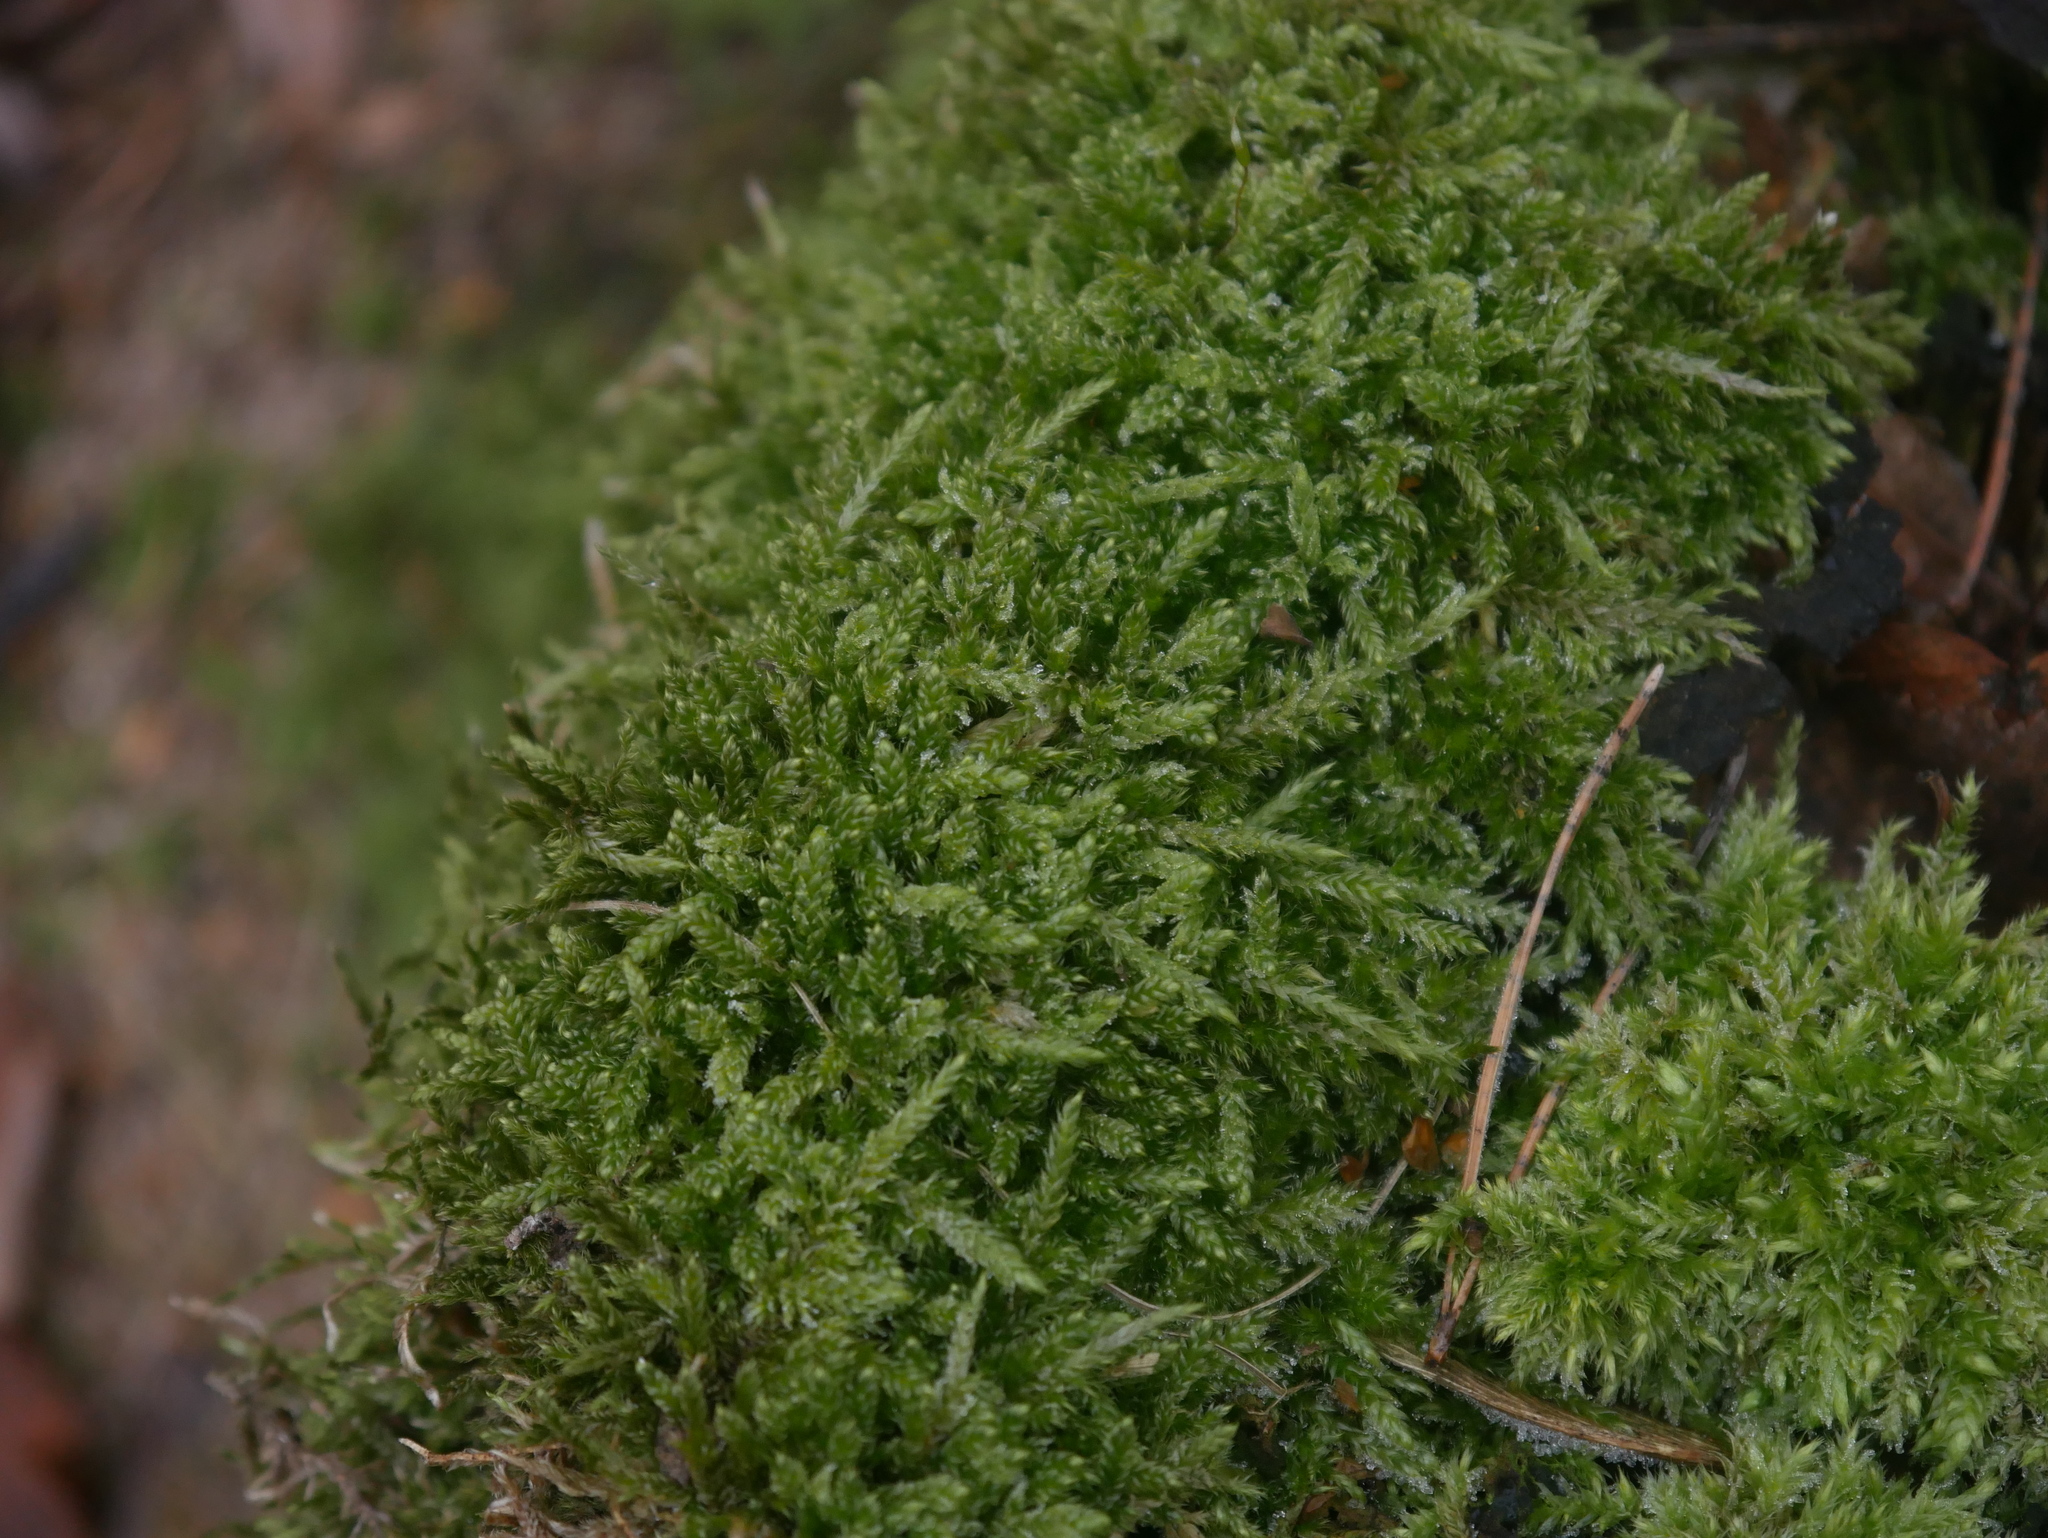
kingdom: Plantae
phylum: Bryophyta
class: Bryopsida
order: Hypnales
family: Hypnaceae
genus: Hypnum
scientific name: Hypnum cupressiforme
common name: Cypress-leaved plait-moss
